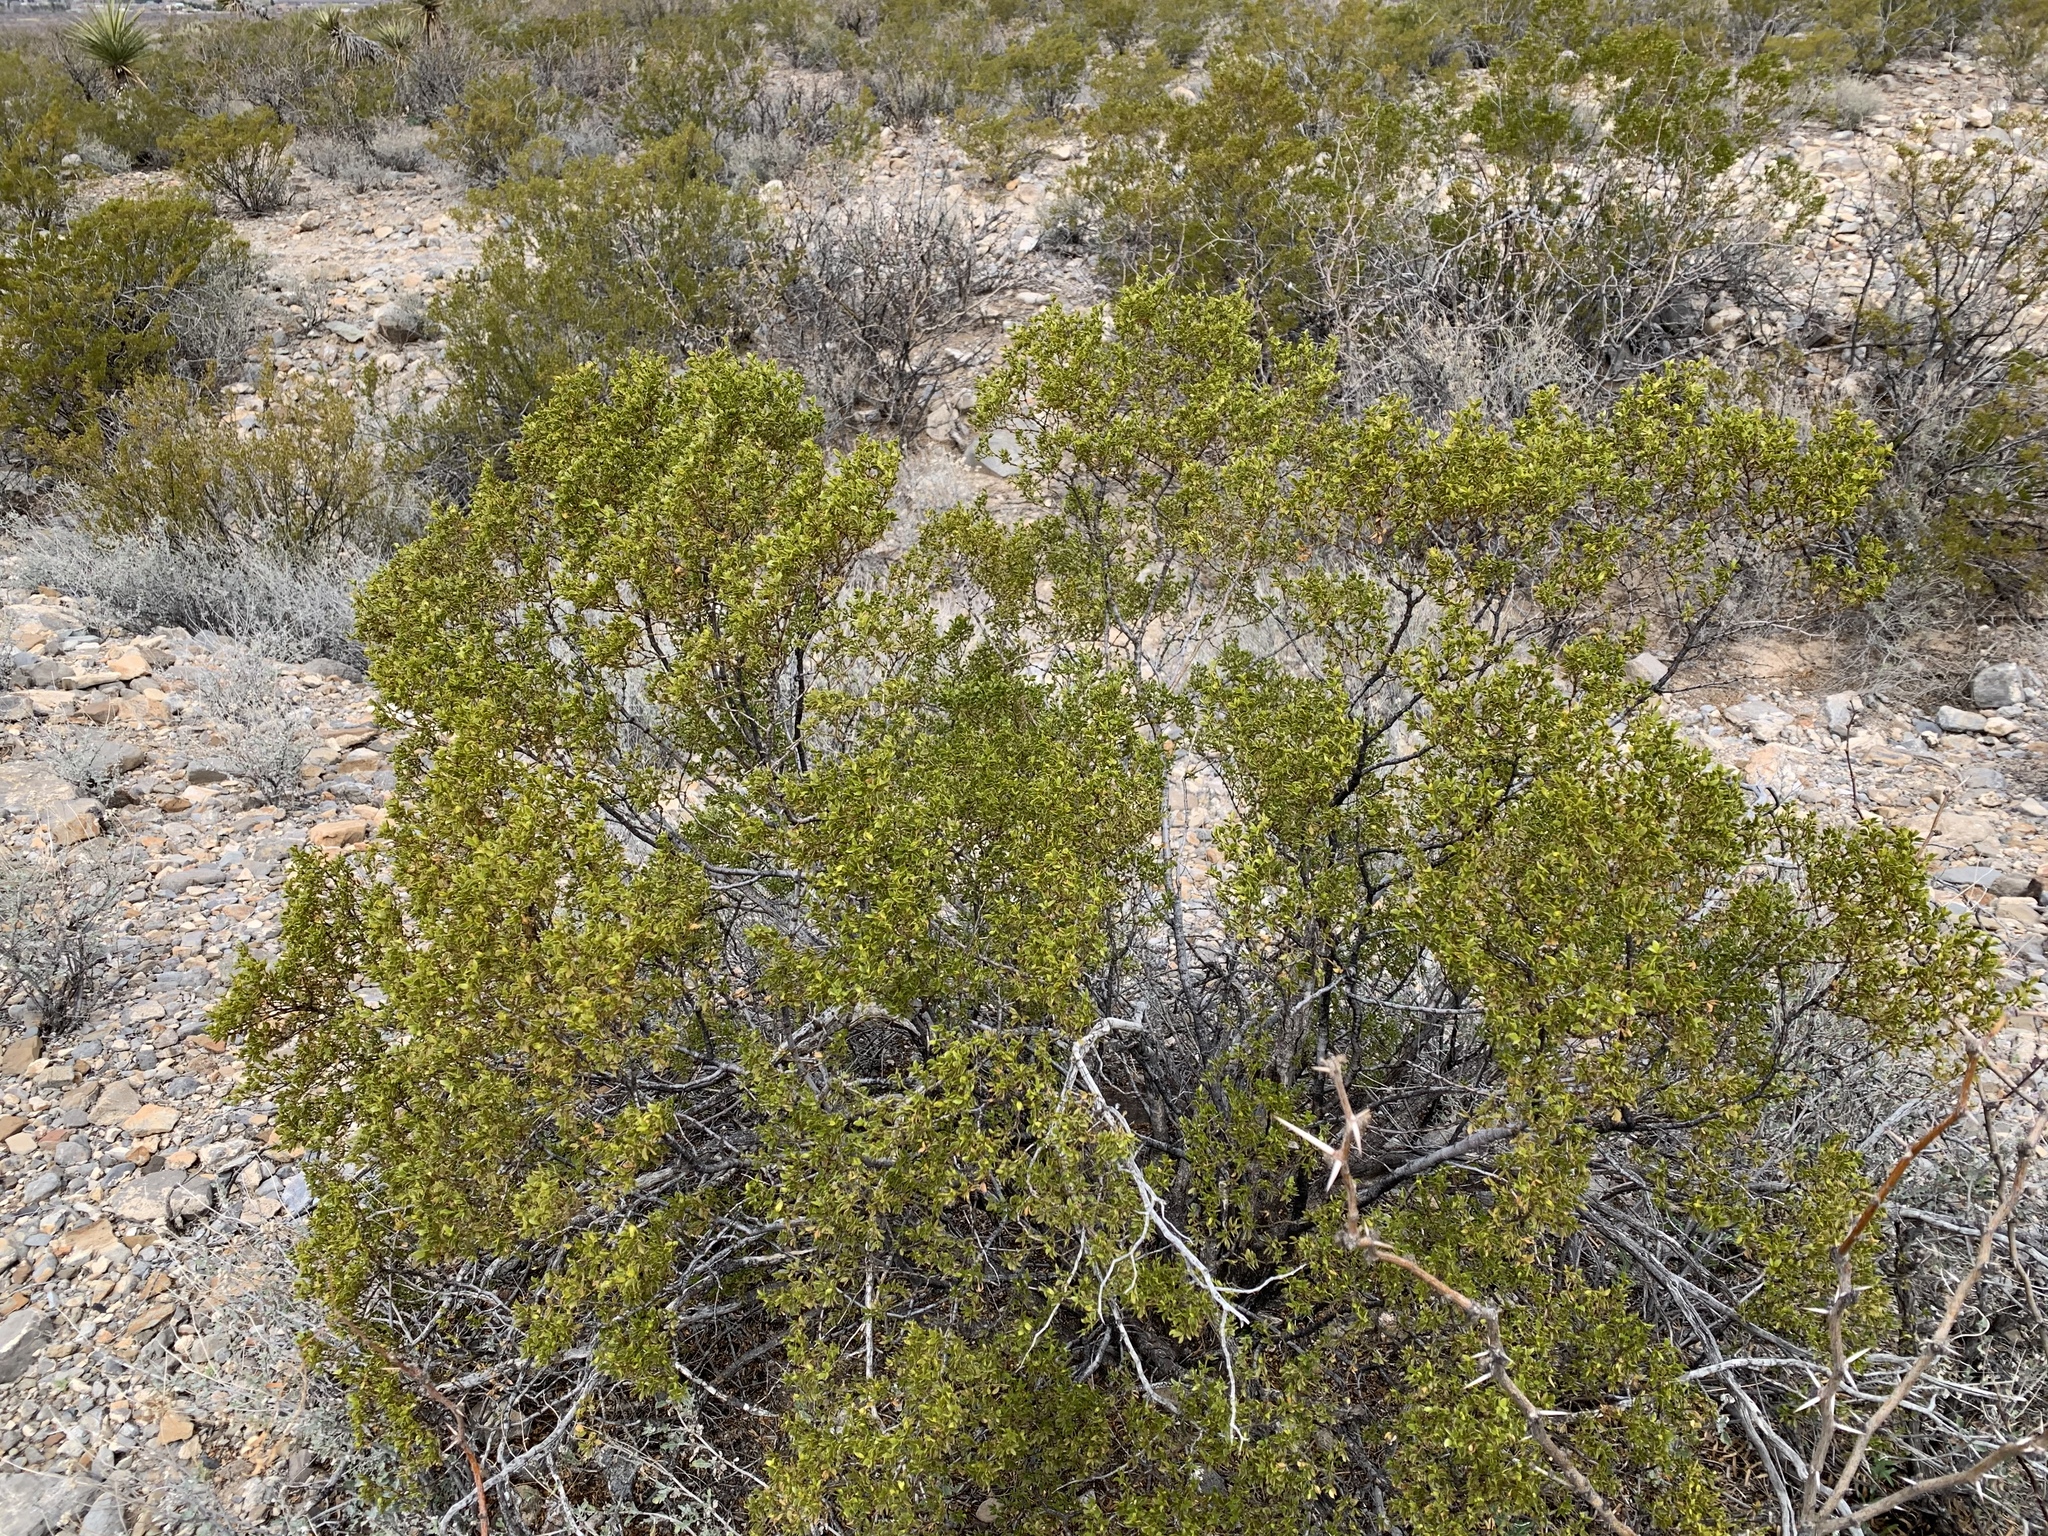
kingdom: Plantae
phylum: Tracheophyta
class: Magnoliopsida
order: Zygophyllales
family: Zygophyllaceae
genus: Larrea
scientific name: Larrea tridentata
